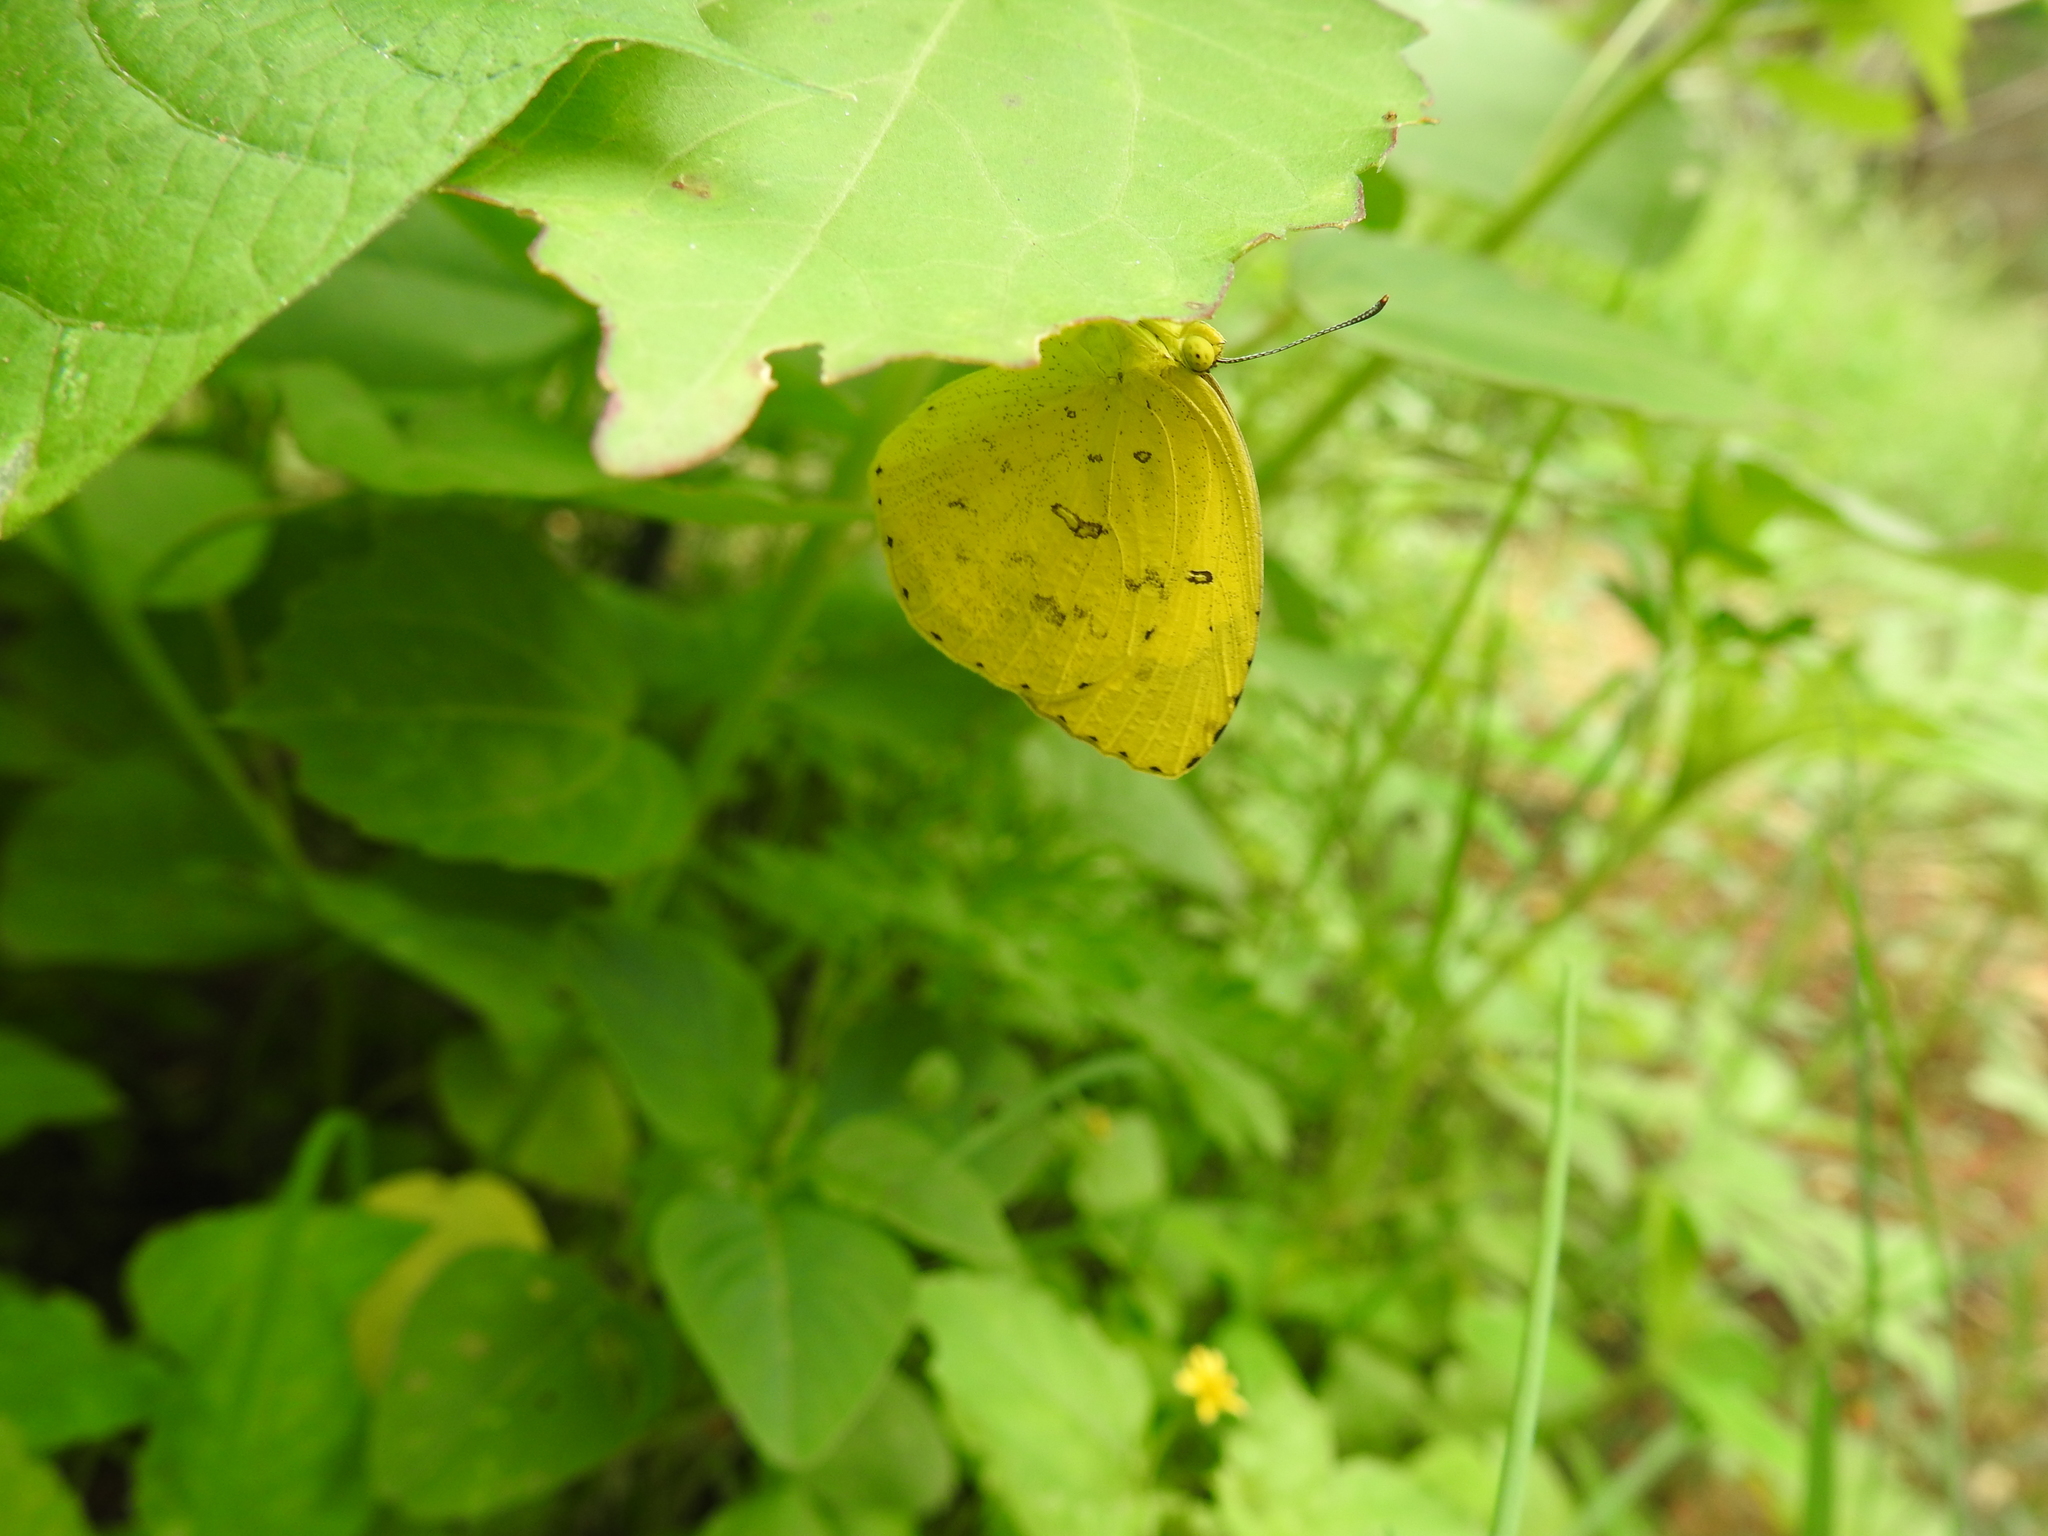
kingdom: Animalia
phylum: Arthropoda
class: Insecta
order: Lepidoptera
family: Pieridae
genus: Eurema
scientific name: Eurema hecabe
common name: Pale grass yellow
